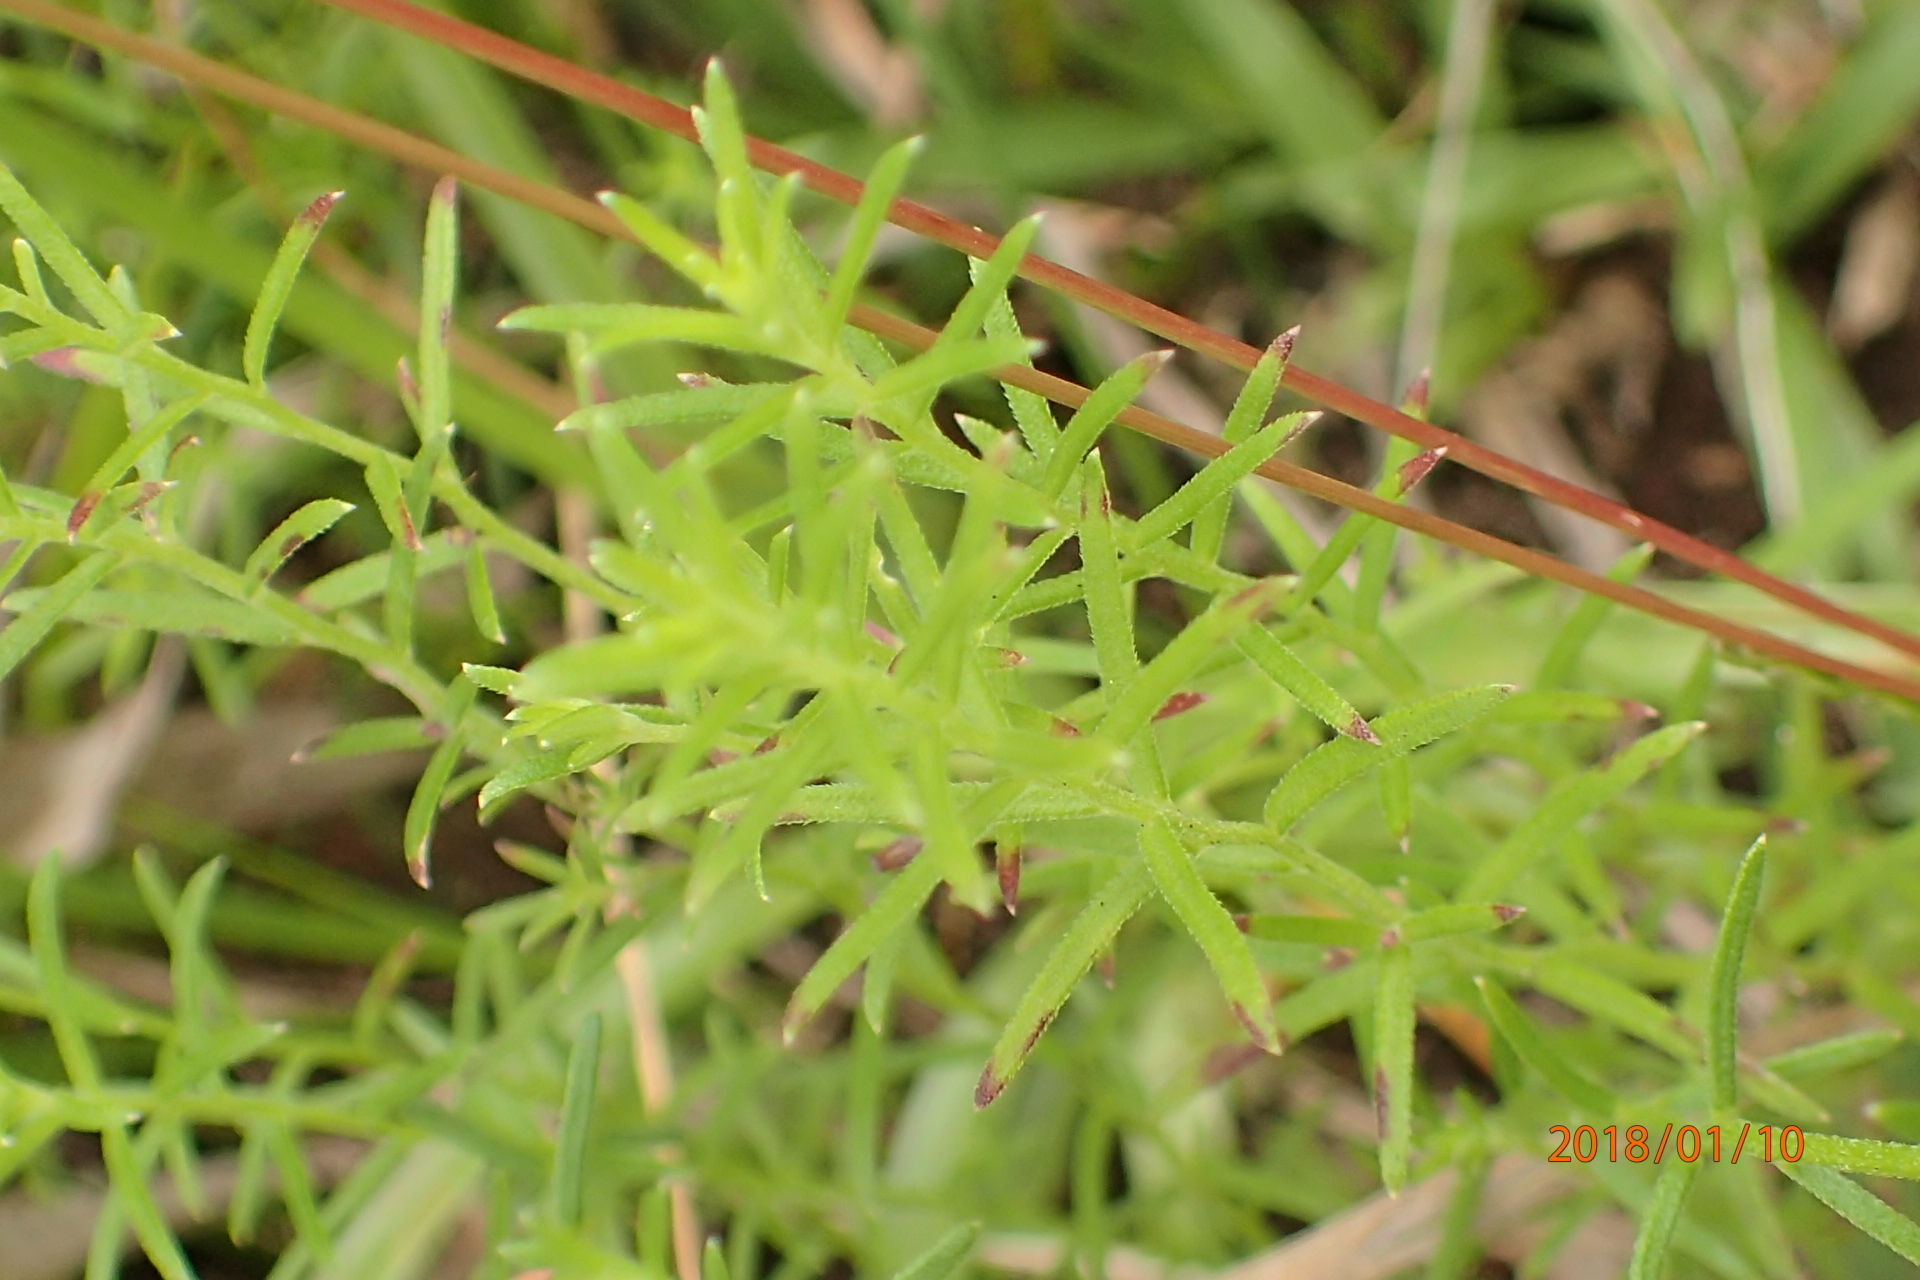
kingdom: Plantae
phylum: Tracheophyta
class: Magnoliopsida
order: Asterales
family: Campanulaceae
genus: Monopsis
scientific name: Monopsis decipiens
